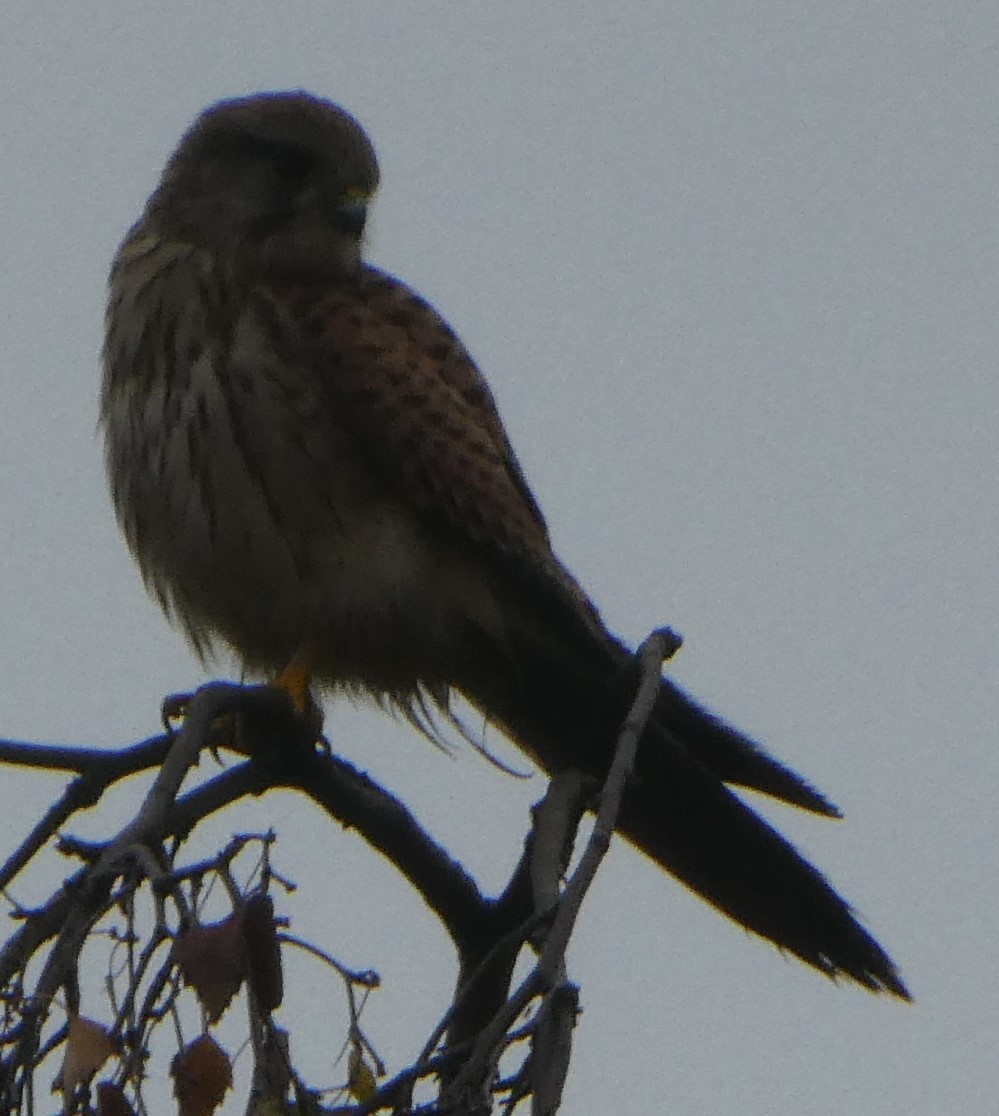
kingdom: Animalia
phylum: Chordata
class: Aves
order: Falconiformes
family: Falconidae
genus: Falco
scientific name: Falco tinnunculus
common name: Common kestrel
